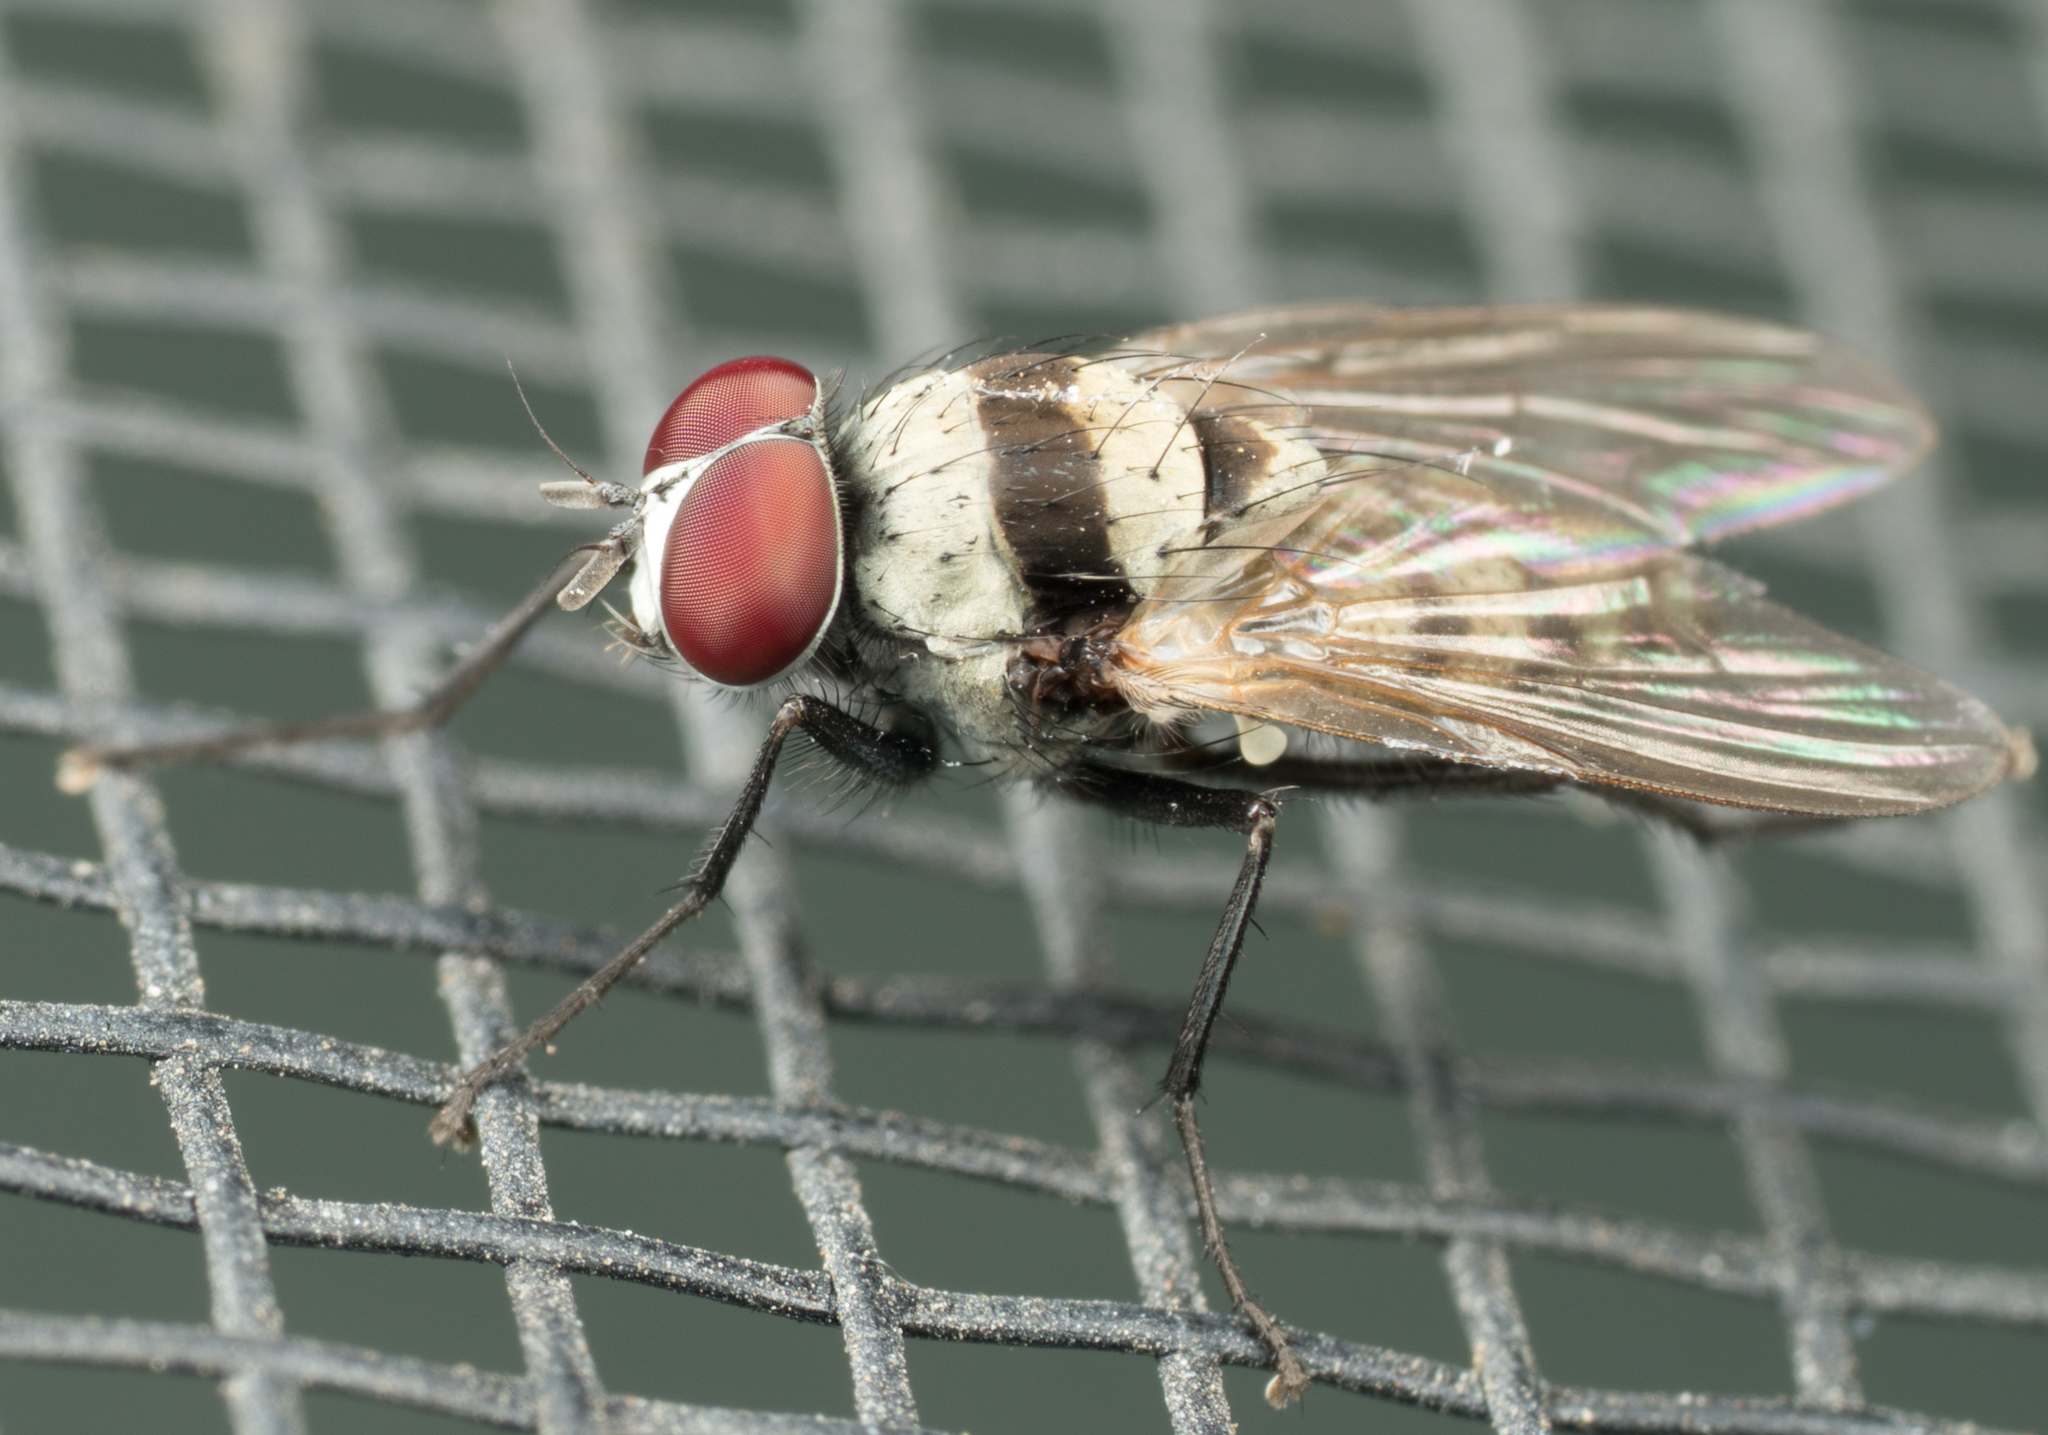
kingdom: Animalia
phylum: Arthropoda
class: Insecta
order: Diptera
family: Anthomyiidae
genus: Anthomyia
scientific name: Anthomyia illocata
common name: Fly
